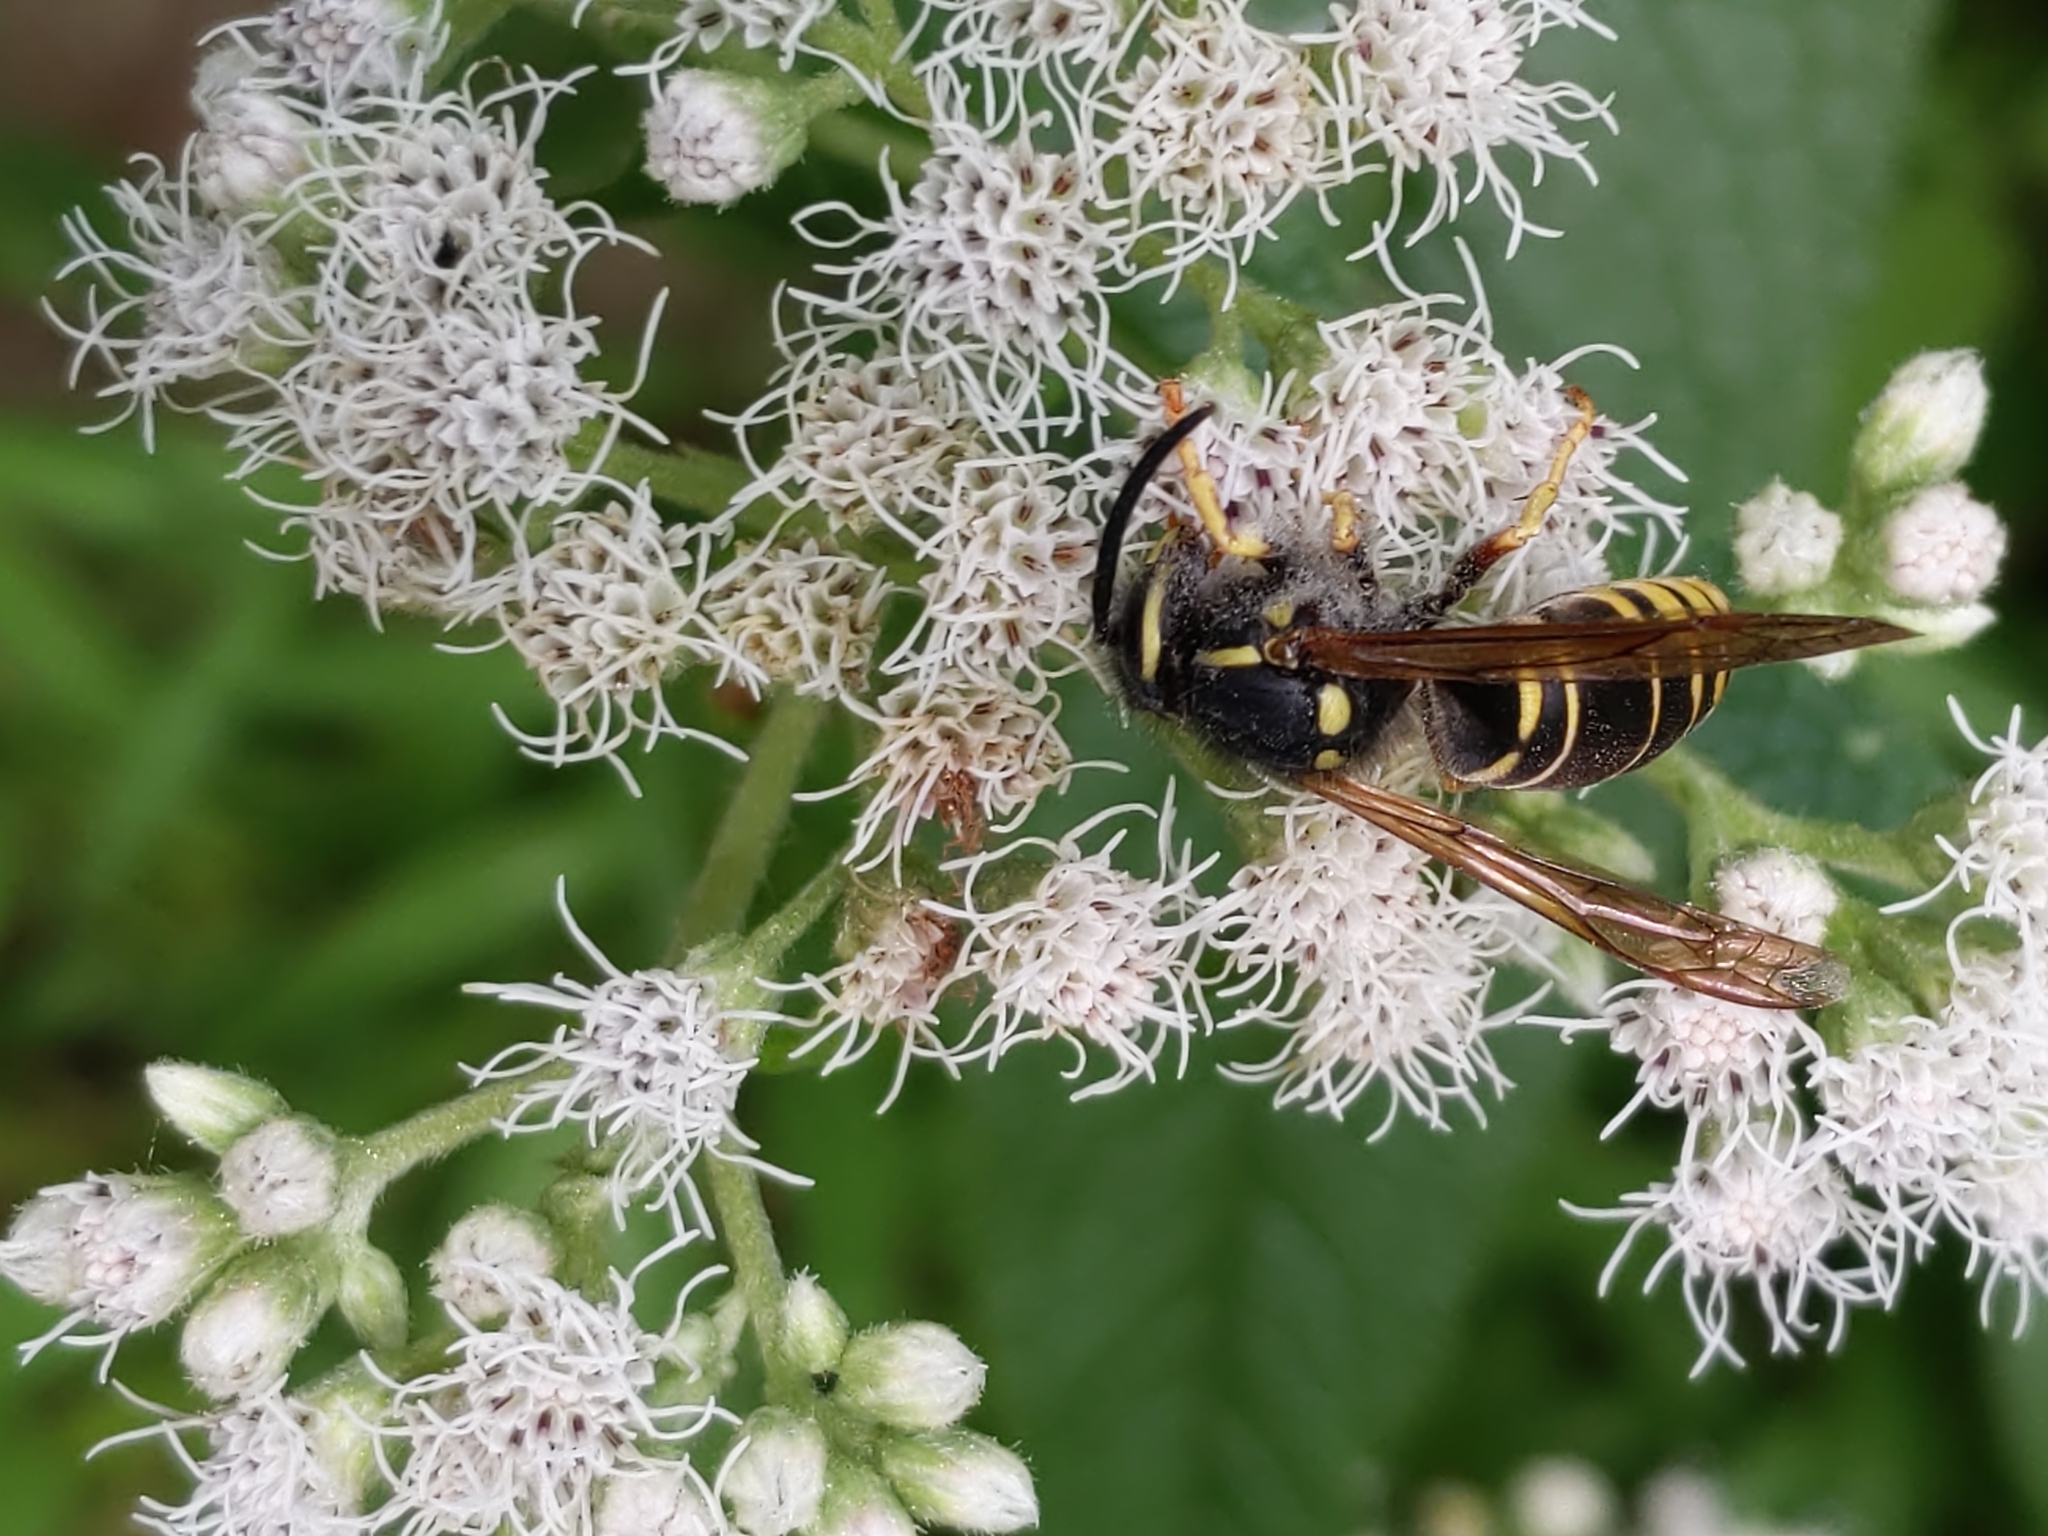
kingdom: Animalia
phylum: Arthropoda
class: Insecta
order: Hymenoptera
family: Vespidae
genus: Vespula
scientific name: Vespula vidua
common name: Widow yellowjacket
